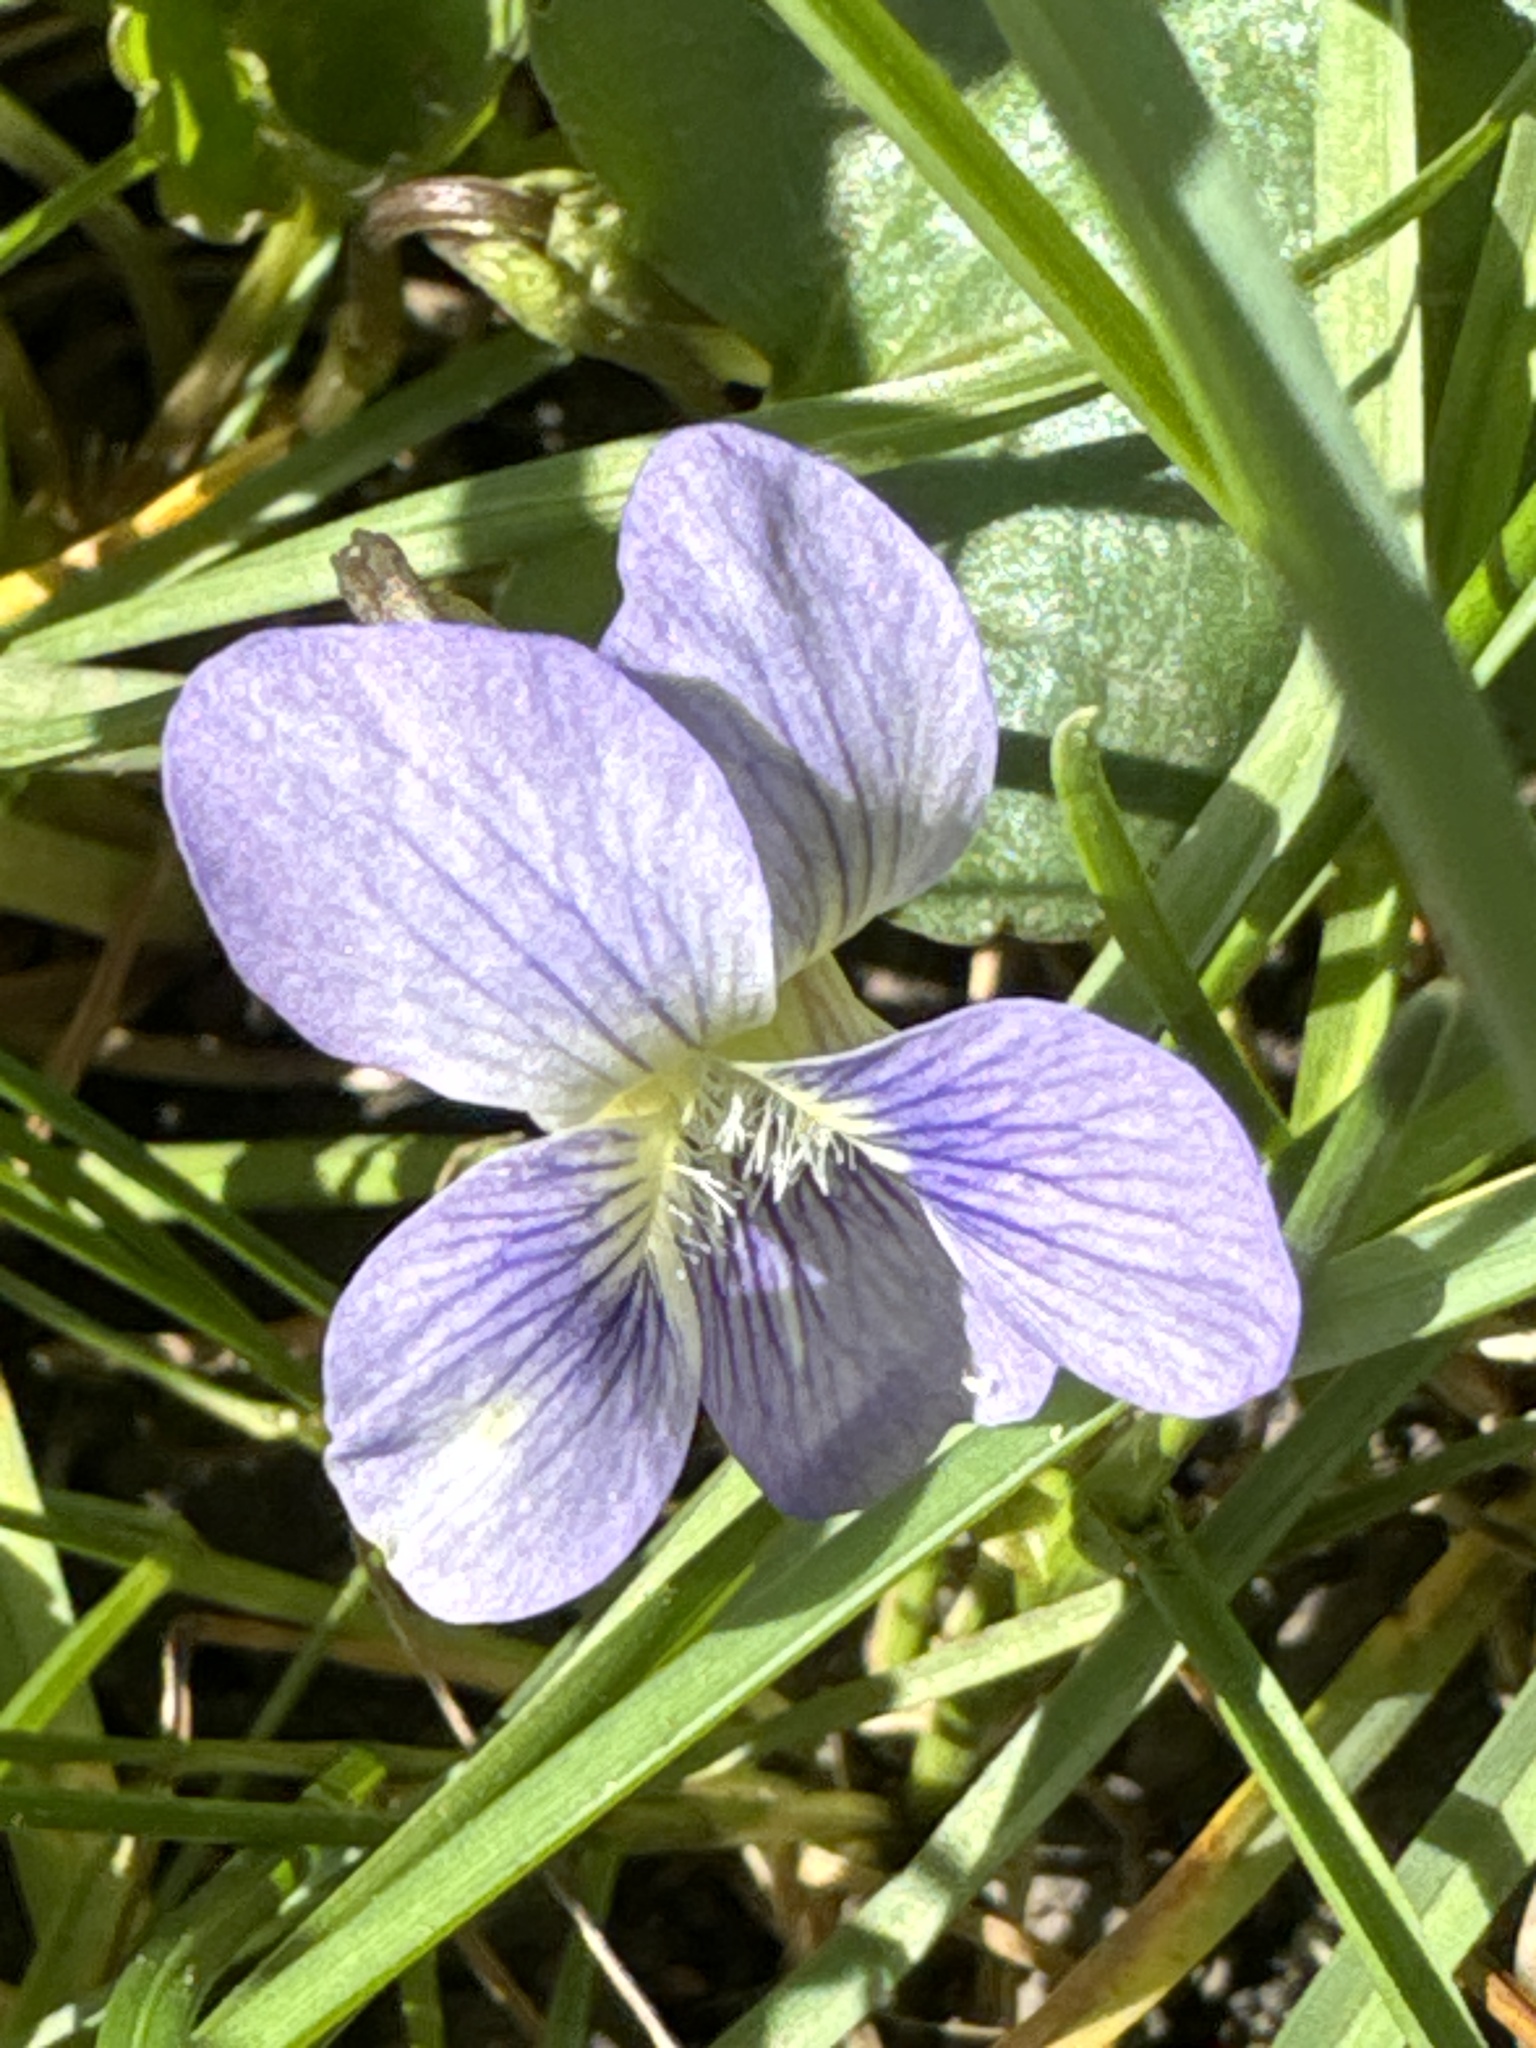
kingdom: Plantae
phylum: Tracheophyta
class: Magnoliopsida
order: Malpighiales
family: Violaceae
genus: Viola
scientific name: Viola communis
